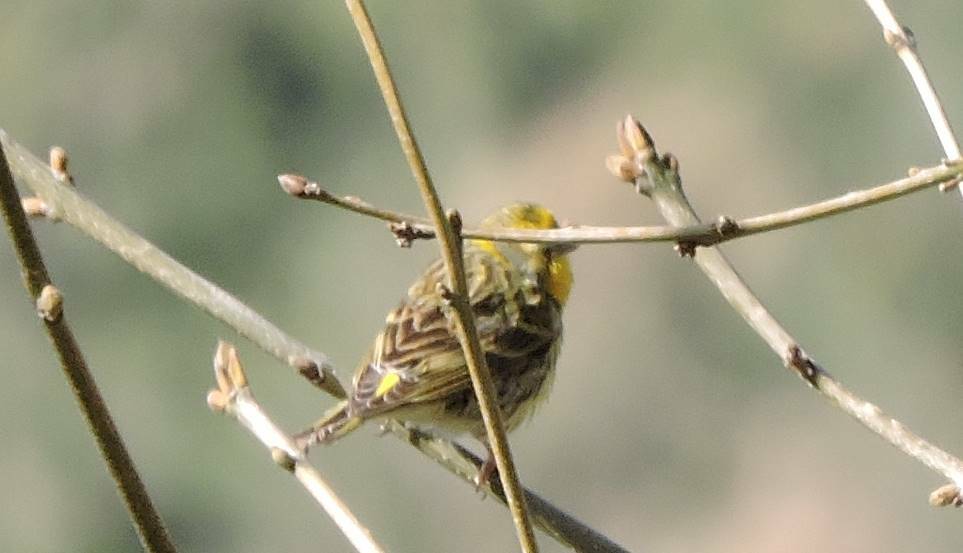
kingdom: Animalia
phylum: Chordata
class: Aves
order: Passeriformes
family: Fringillidae
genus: Serinus
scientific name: Serinus serinus
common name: European serin
